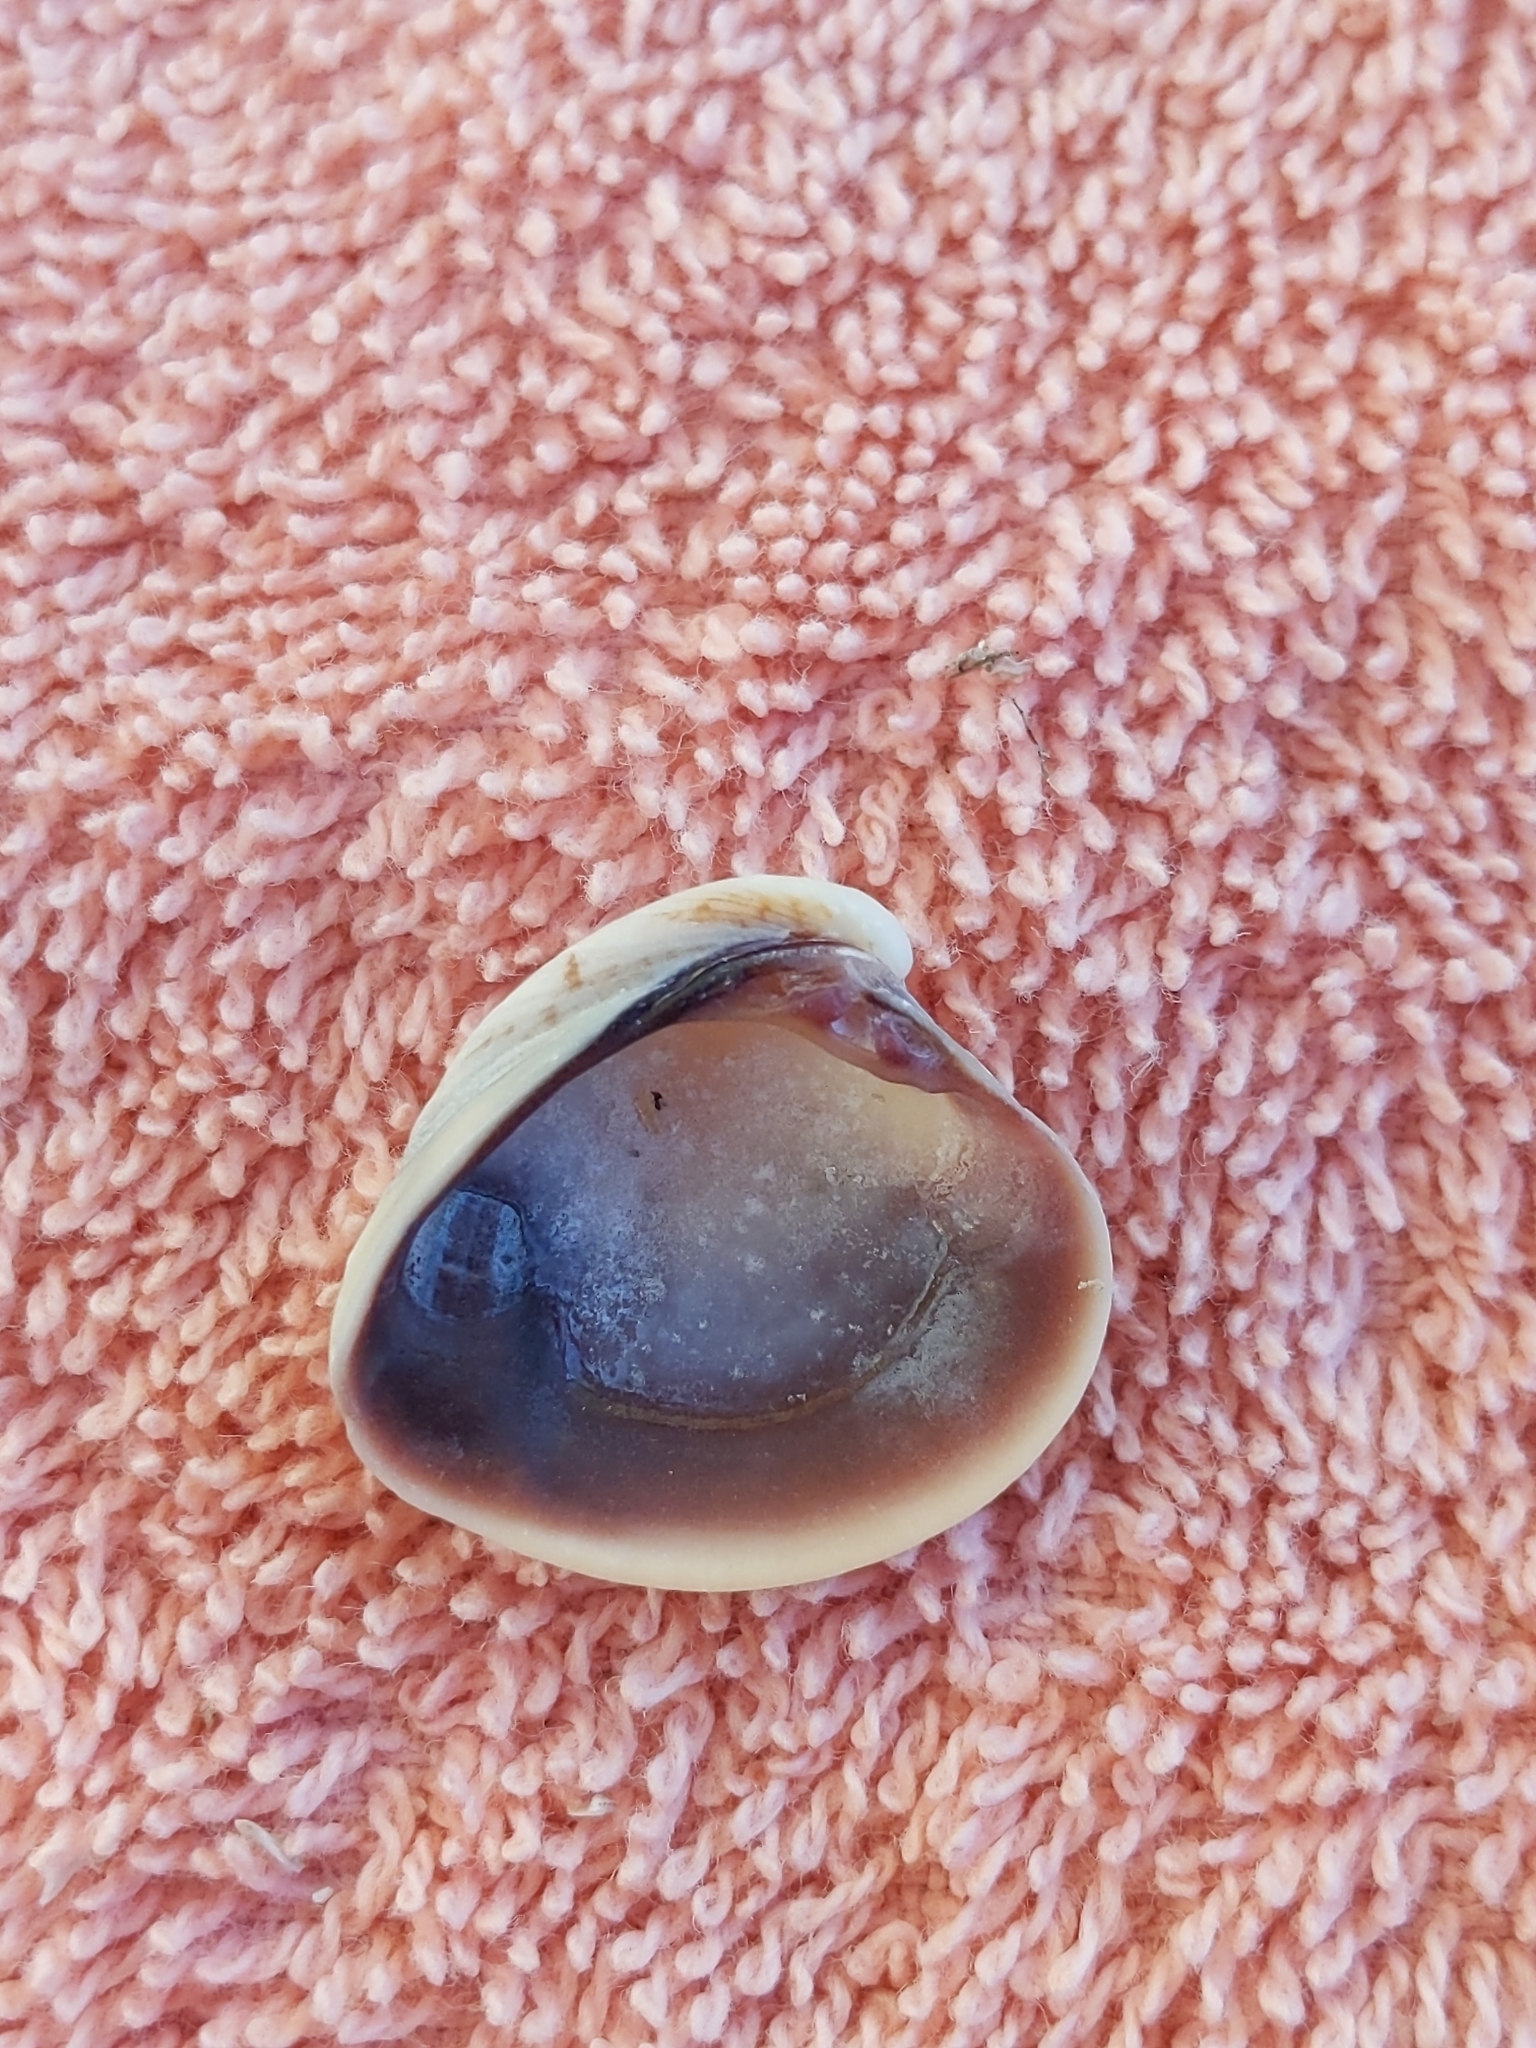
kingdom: Animalia
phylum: Mollusca
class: Bivalvia
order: Venerida
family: Veneridae
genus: Chione
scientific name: Chione elevata
